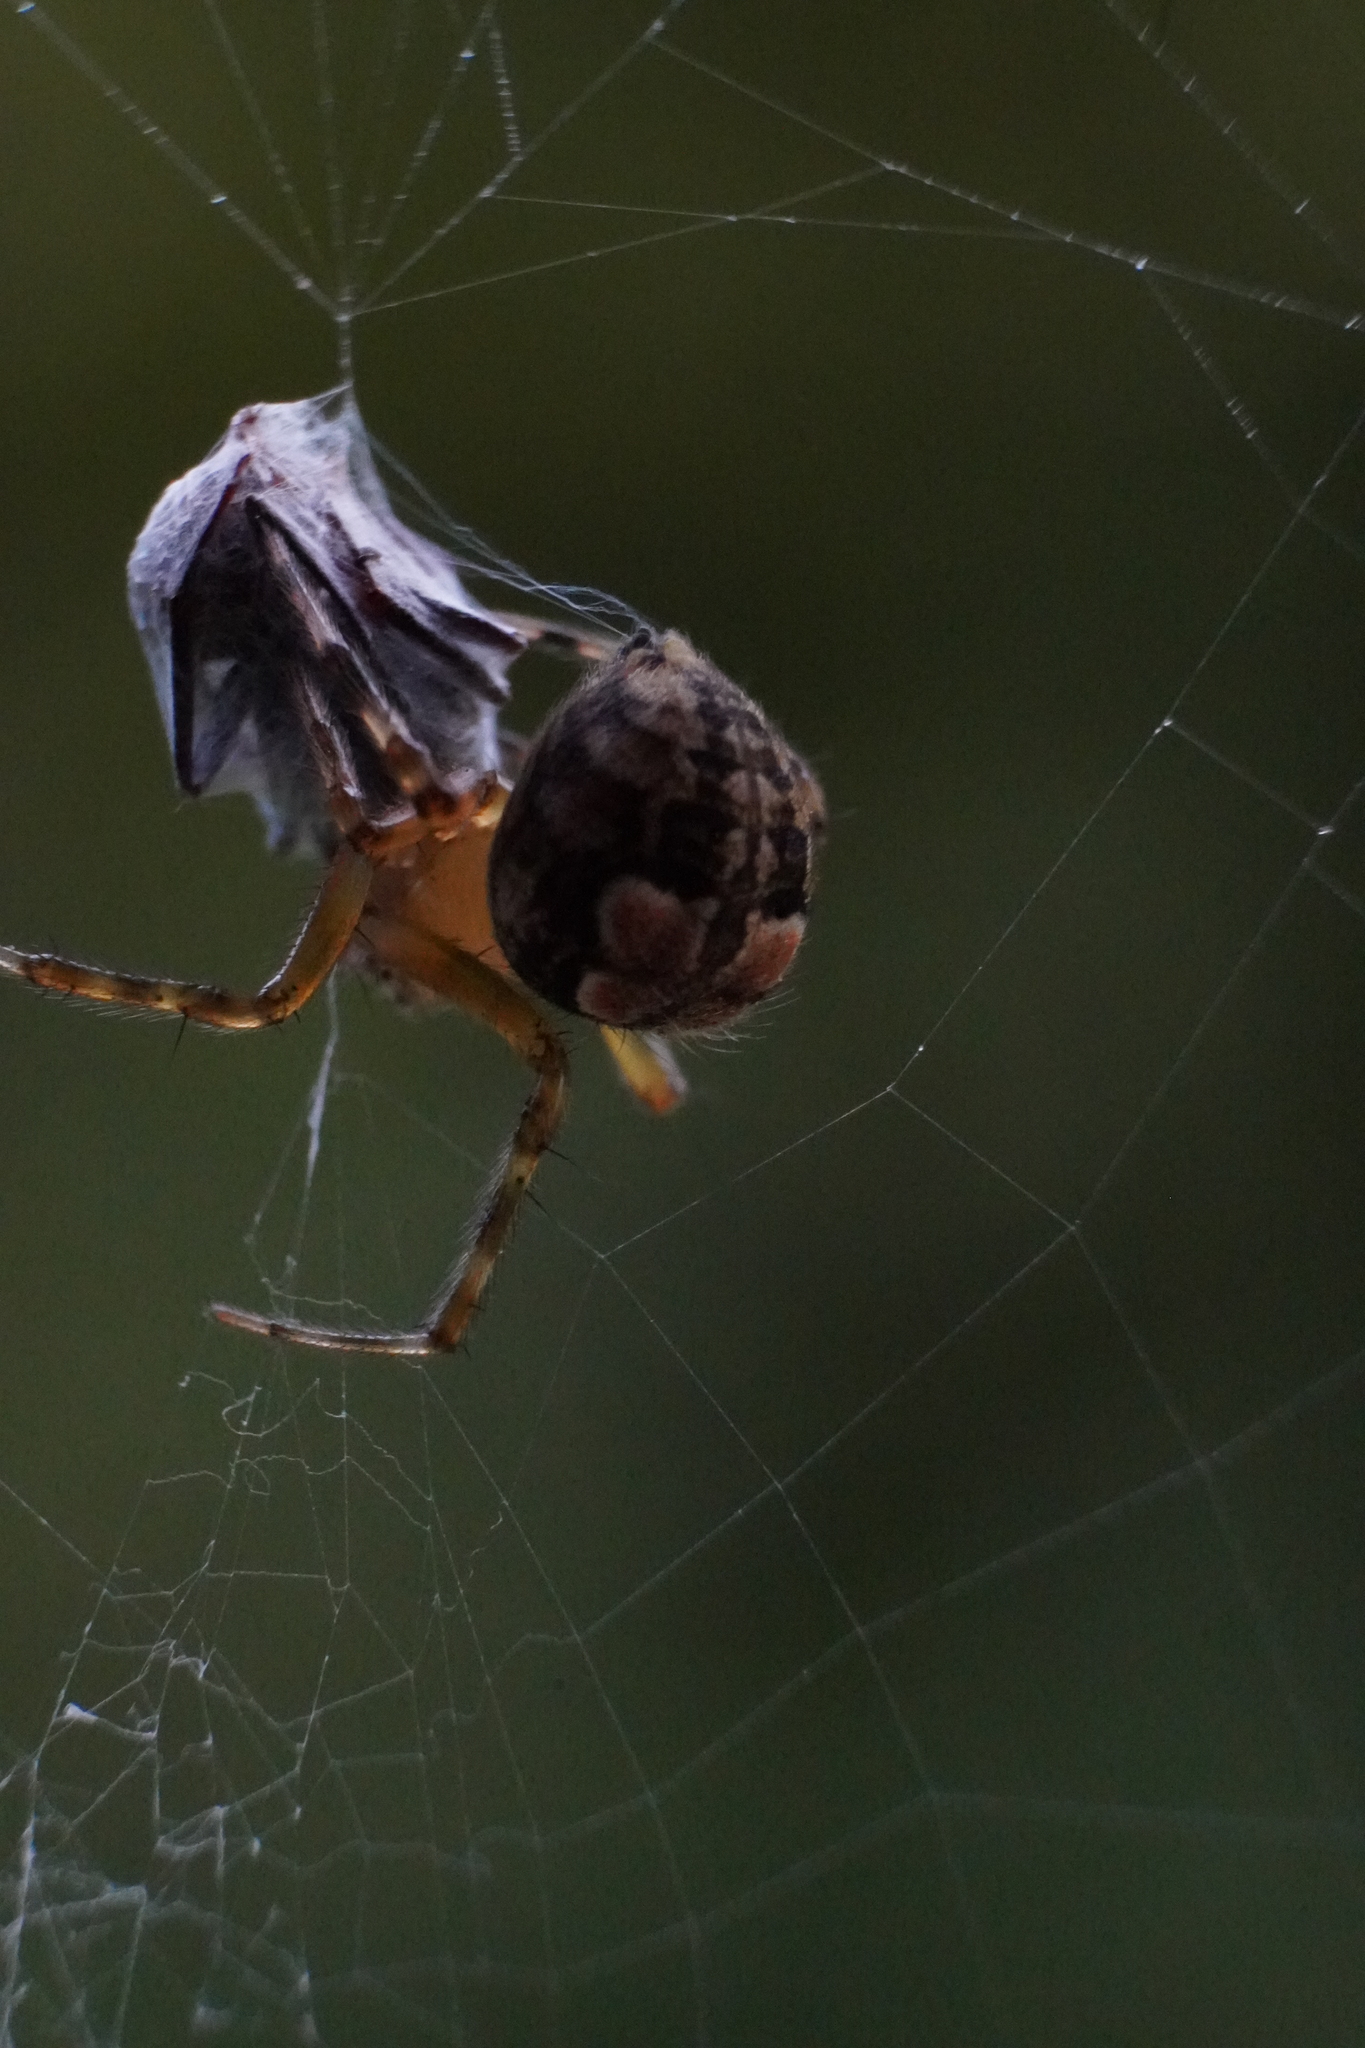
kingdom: Animalia
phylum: Arthropoda
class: Arachnida
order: Araneae
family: Araneidae
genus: Araneus
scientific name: Araneus pegnia
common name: Orb weavers
